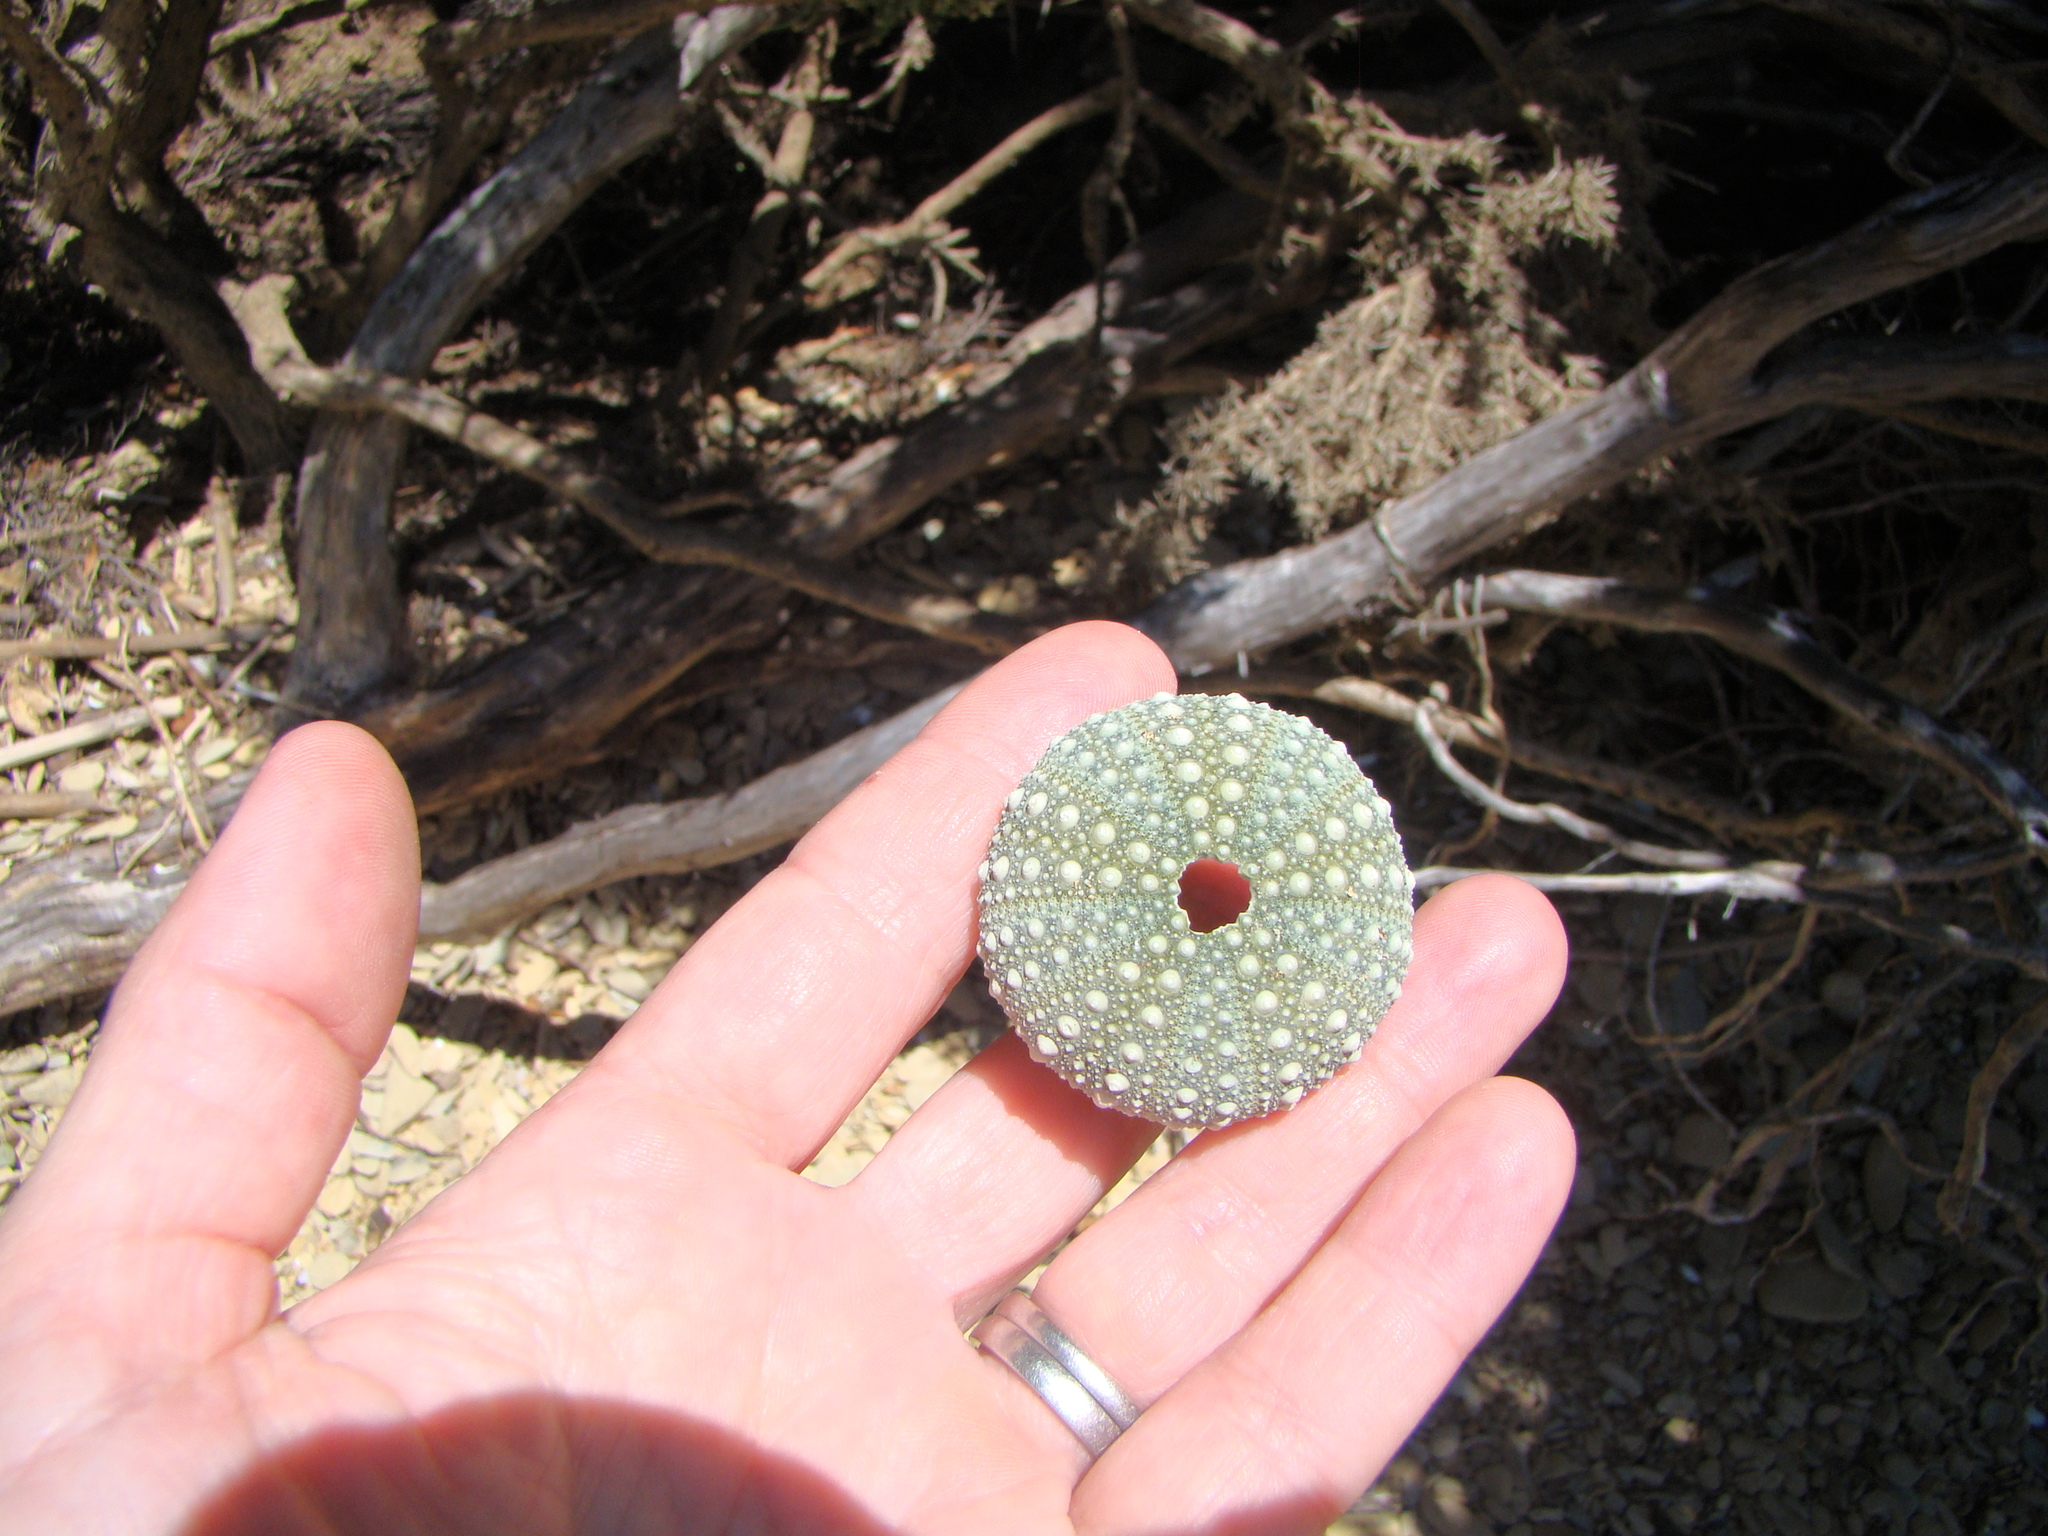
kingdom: Animalia
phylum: Echinodermata
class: Echinoidea
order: Camarodonta
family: Echinometridae
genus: Evechinus
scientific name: Evechinus chloroticus
